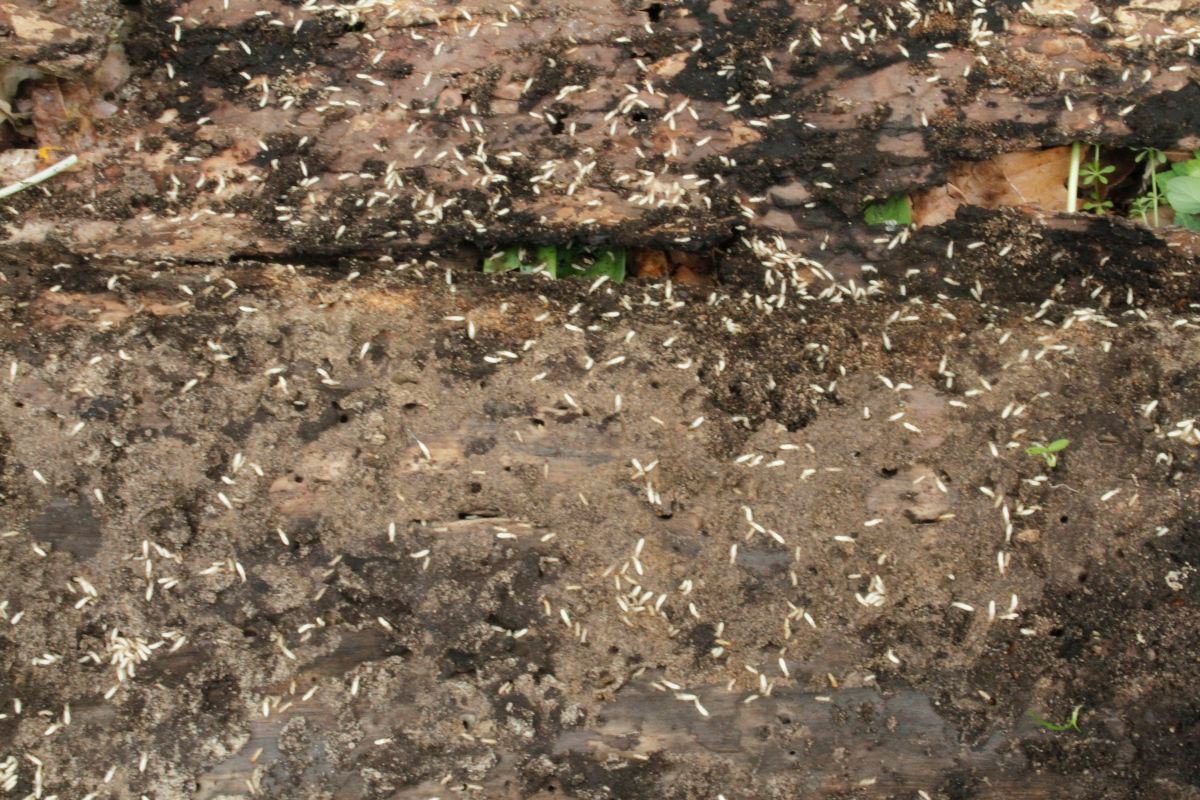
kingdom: Animalia
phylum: Arthropoda
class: Insecta
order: Blattodea
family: Rhinotermitidae
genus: Reticulitermes
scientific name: Reticulitermes flavipes
